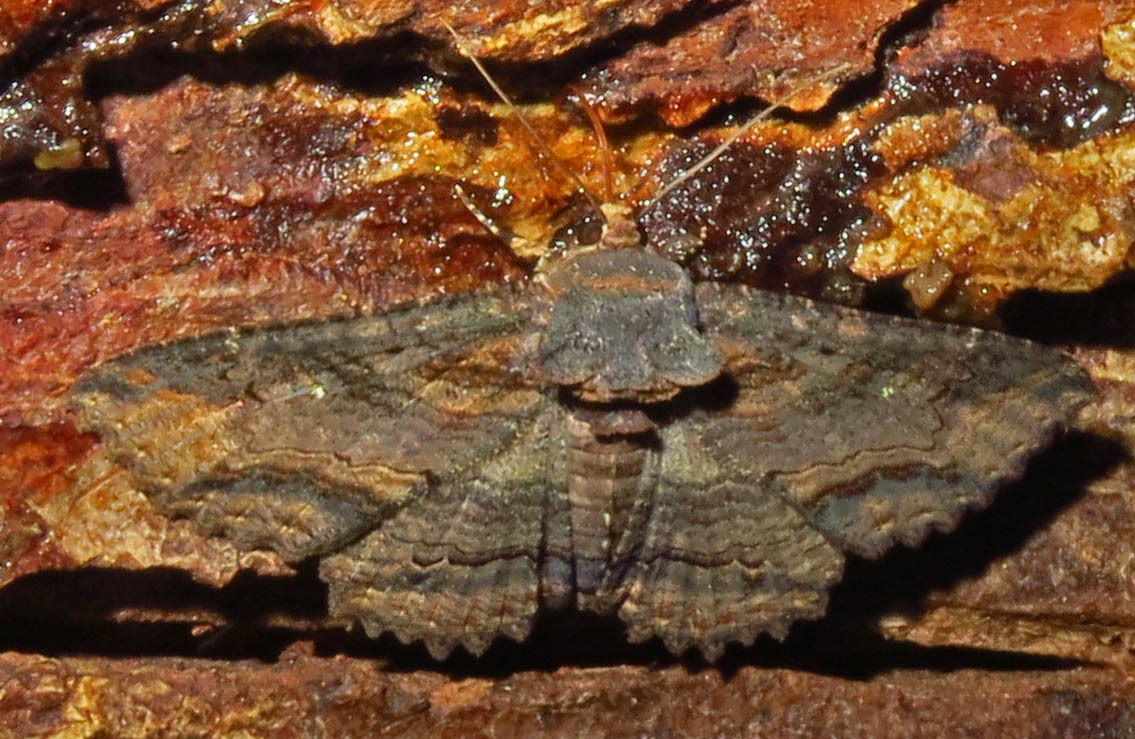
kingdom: Animalia
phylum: Arthropoda
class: Insecta
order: Lepidoptera
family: Erebidae
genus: Zale
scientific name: Zale lunata
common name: Lunate zale moth
